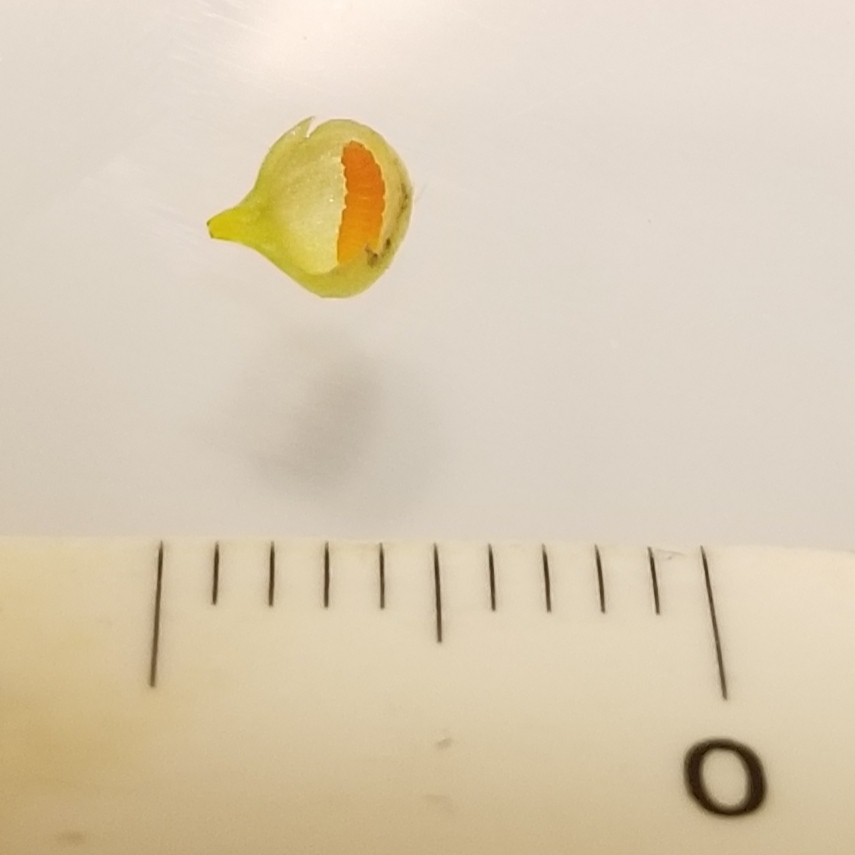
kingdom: Animalia
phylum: Arthropoda
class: Insecta
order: Diptera
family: Cecidomyiidae
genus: Schizomyia
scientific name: Schizomyia racemicola
